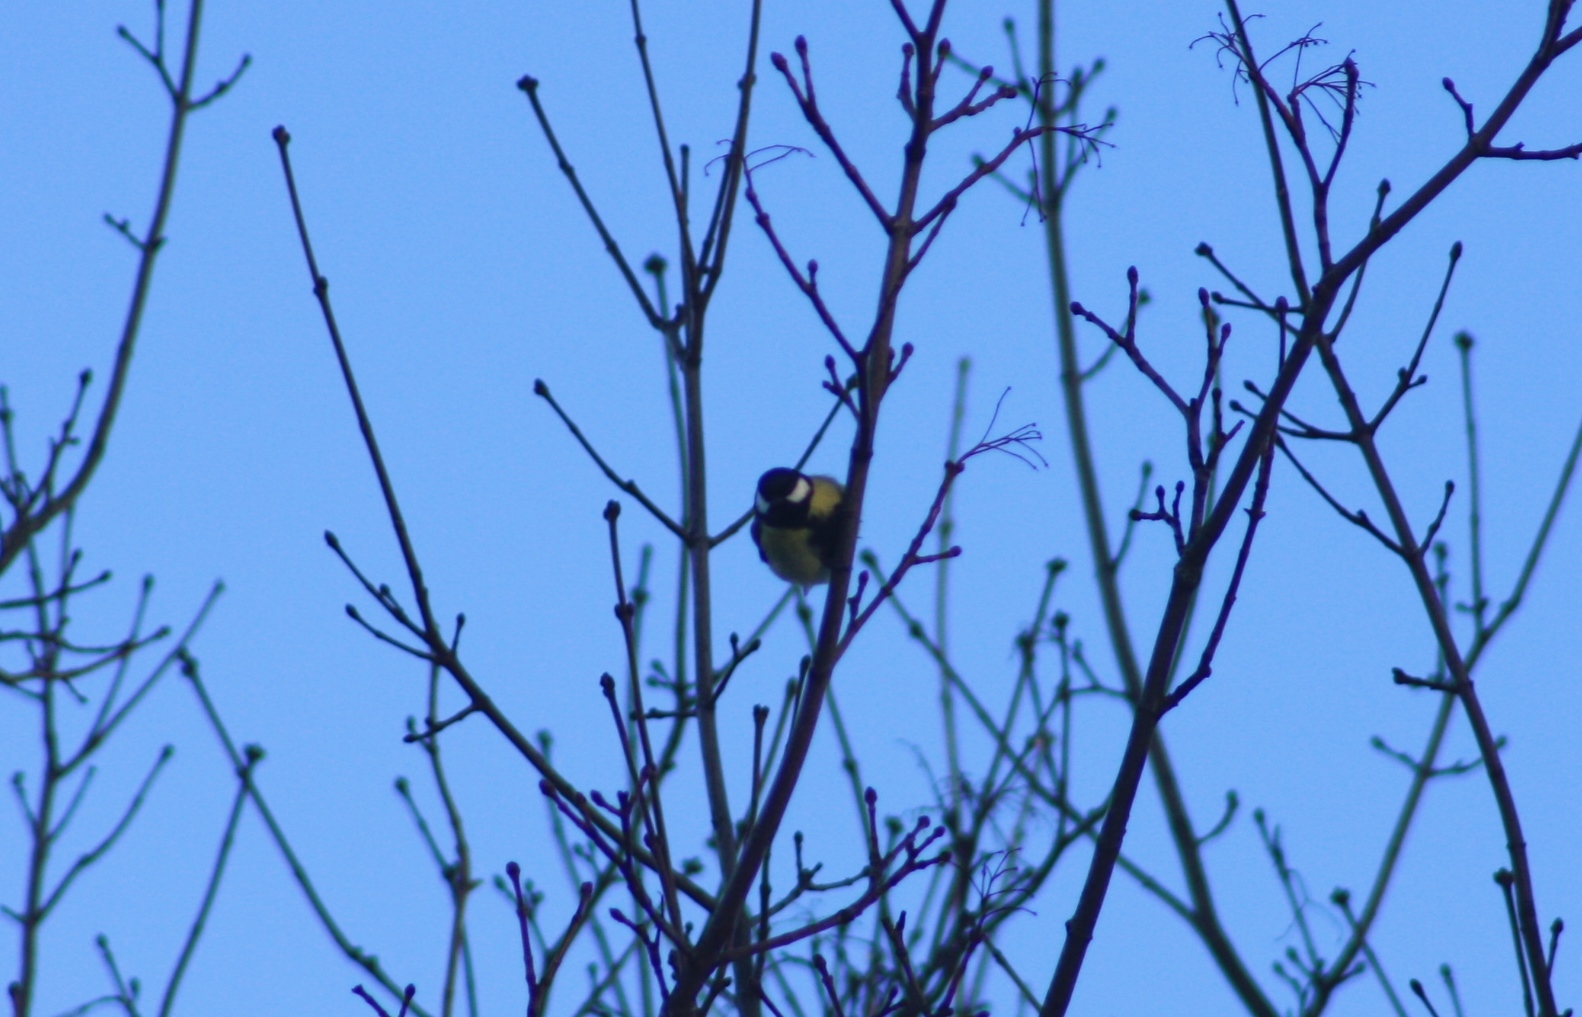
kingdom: Animalia
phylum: Chordata
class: Aves
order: Passeriformes
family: Paridae
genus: Parus
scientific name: Parus major
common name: Great tit
